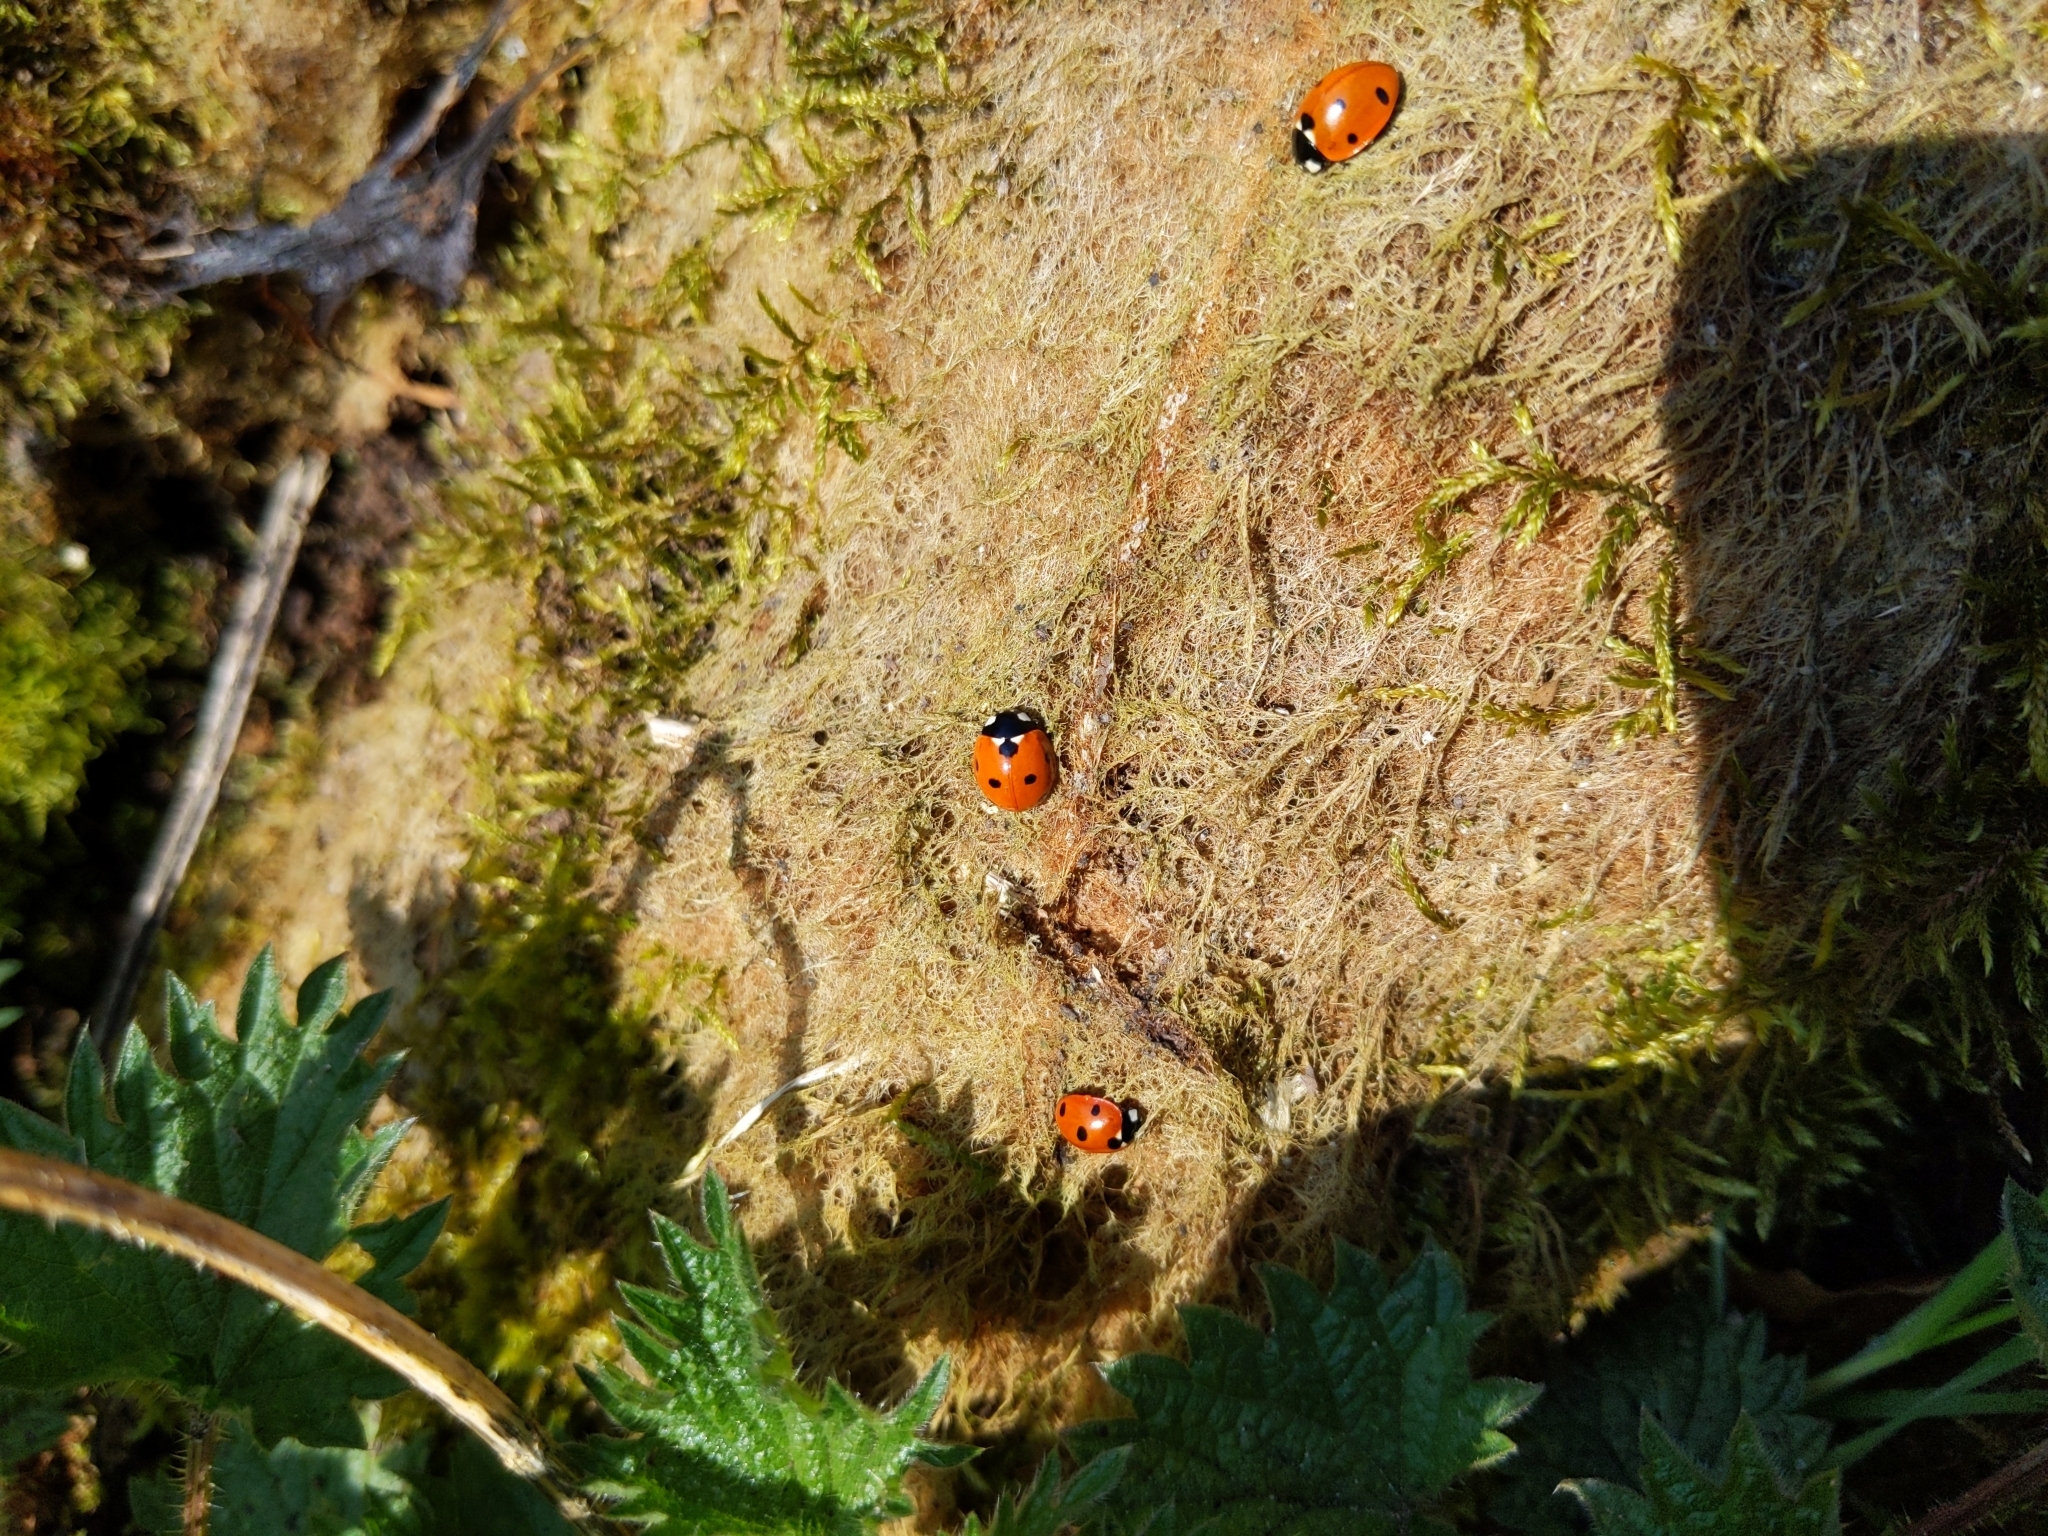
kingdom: Animalia
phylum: Arthropoda
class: Insecta
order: Coleoptera
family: Coccinellidae
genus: Coccinella
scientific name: Coccinella septempunctata
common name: Sevenspotted lady beetle
